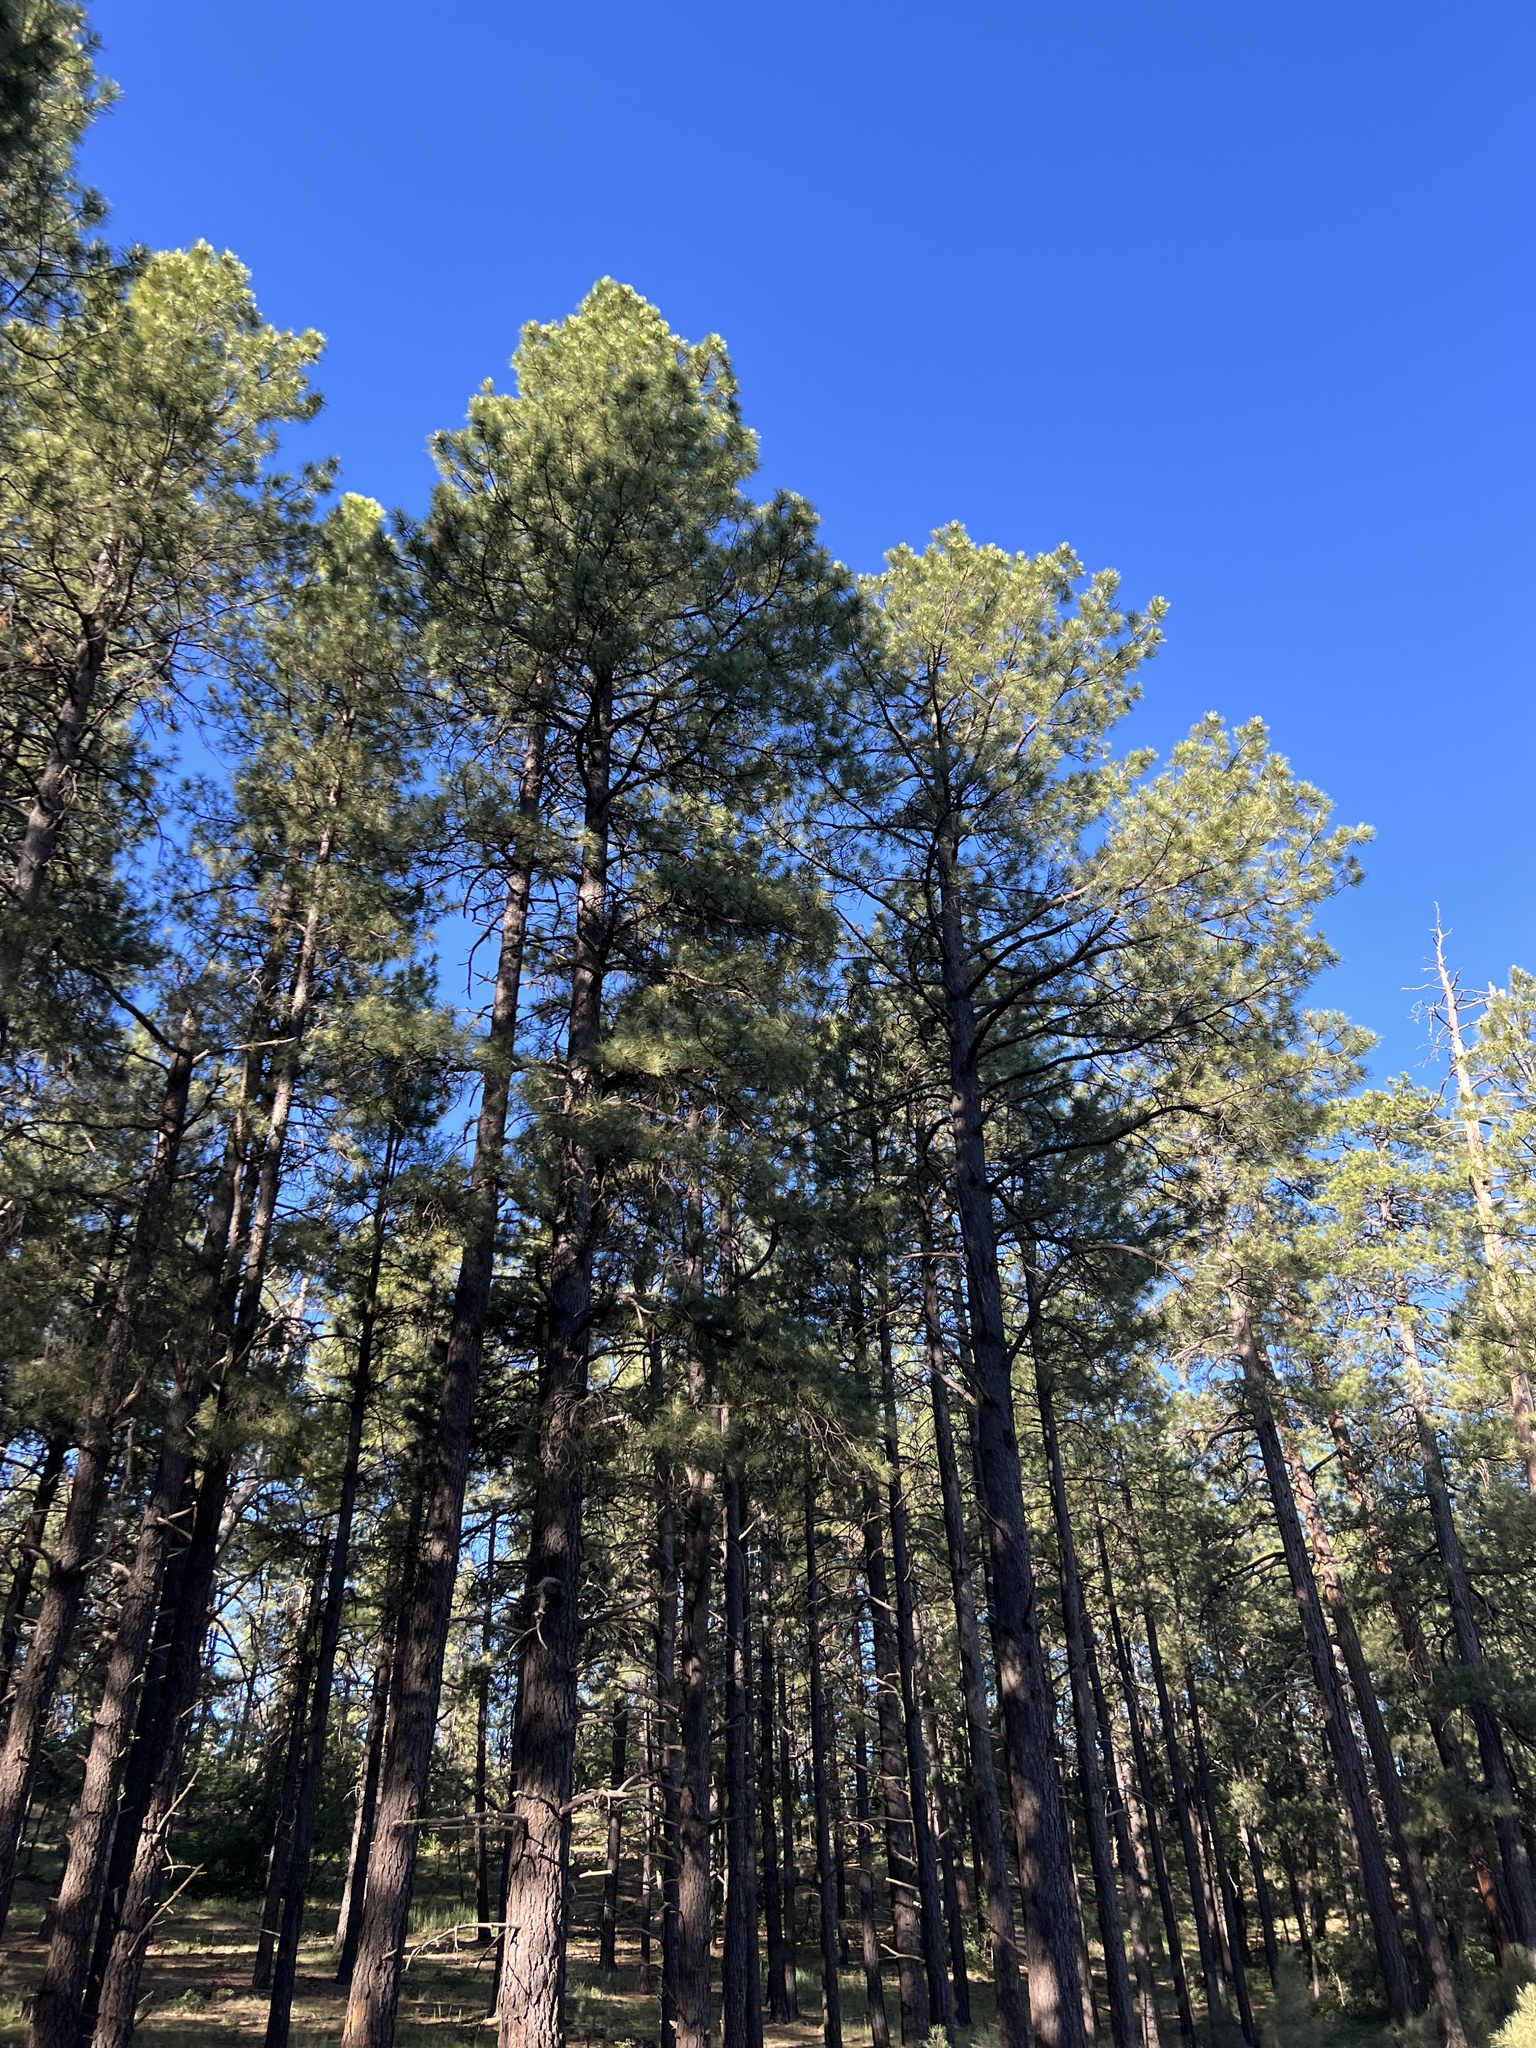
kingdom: Plantae
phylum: Tracheophyta
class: Pinopsida
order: Pinales
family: Pinaceae
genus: Pinus
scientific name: Pinus ponderosa
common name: Western yellow-pine
